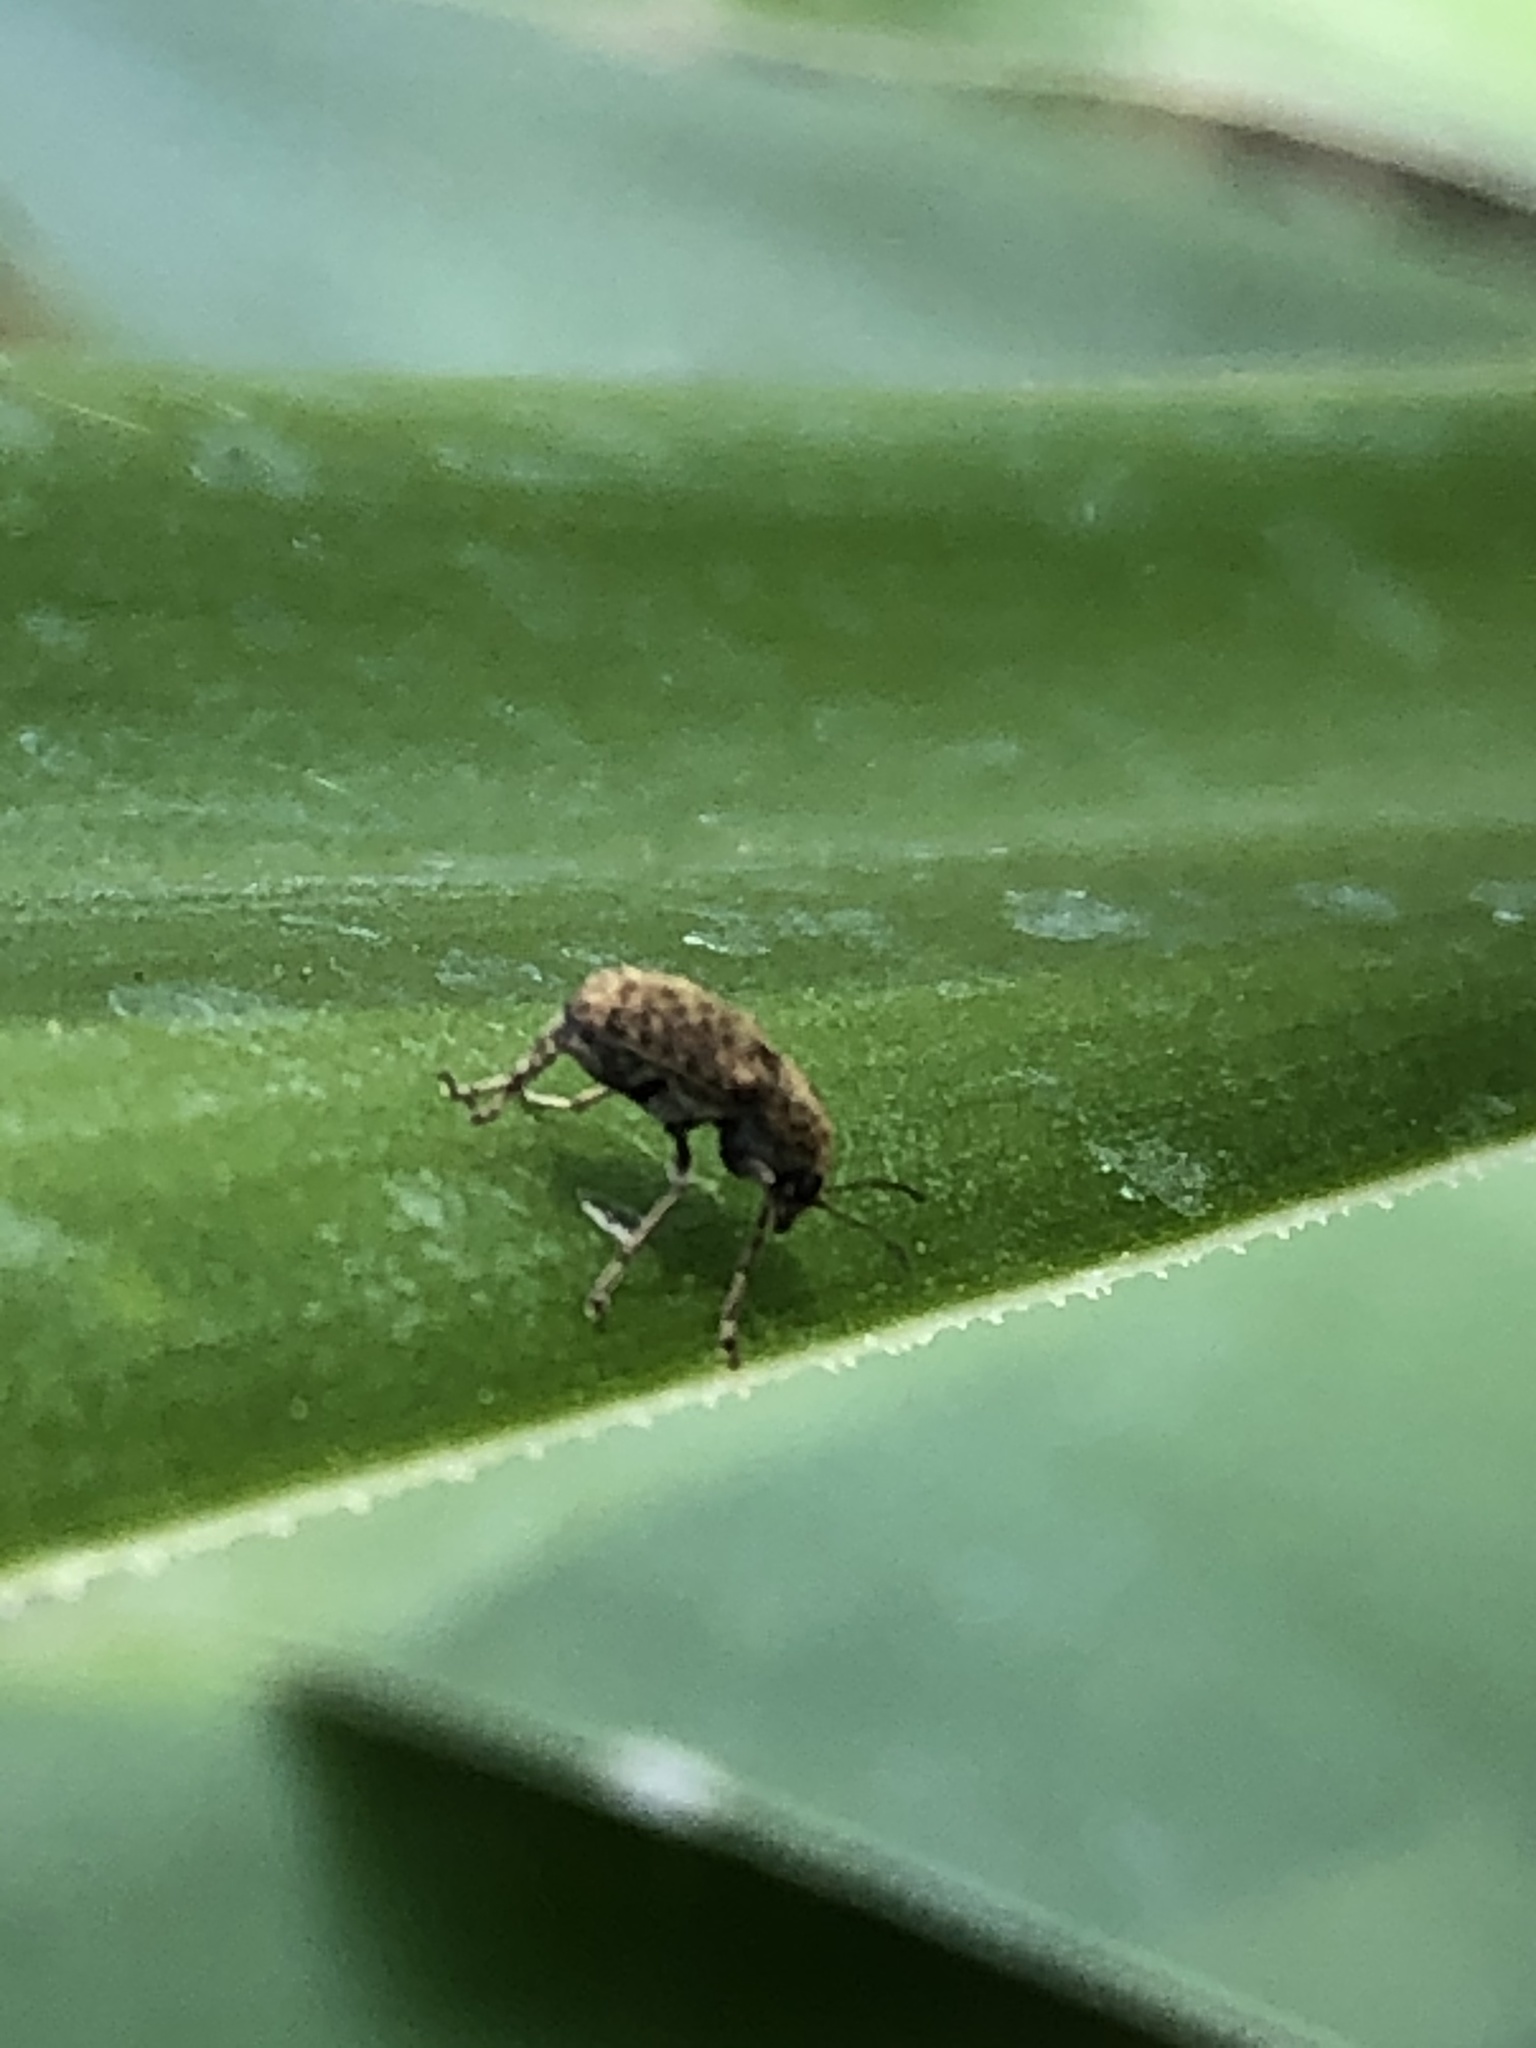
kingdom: Animalia
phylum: Arthropoda
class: Insecta
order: Coleoptera
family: Anthribidae
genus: Araecerus
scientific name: Araecerus fasciculatus
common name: Coffee bean weevil
